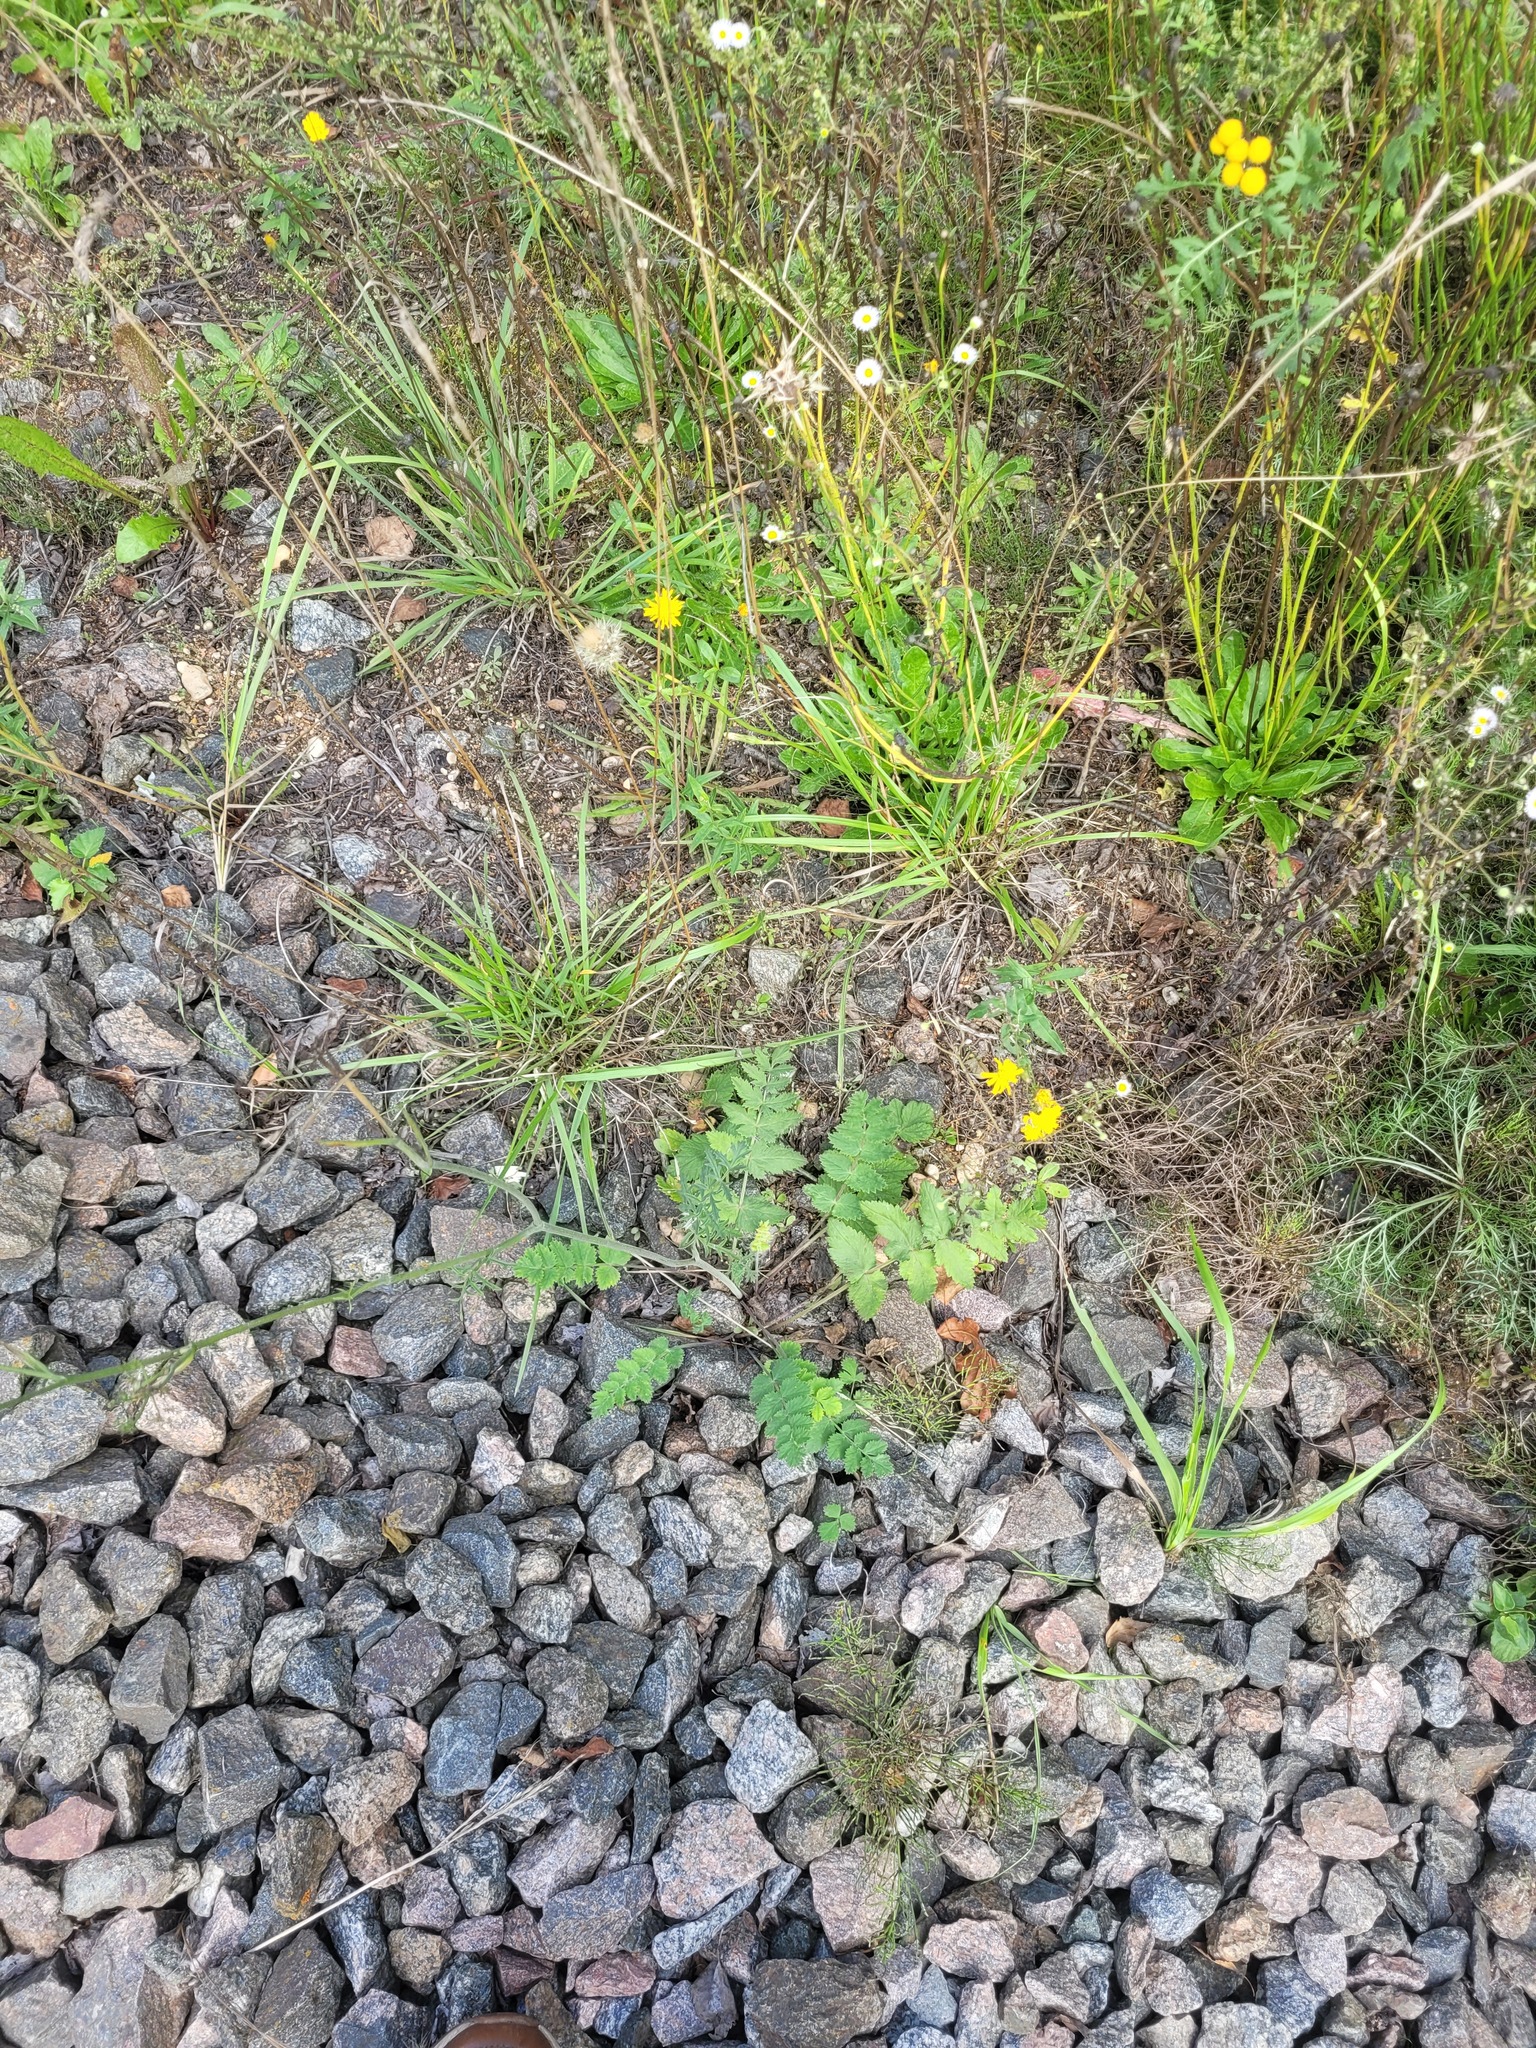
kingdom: Plantae
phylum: Tracheophyta
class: Magnoliopsida
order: Apiales
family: Apiaceae
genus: Pimpinella
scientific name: Pimpinella saxifraga
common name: Burnet-saxifrage
